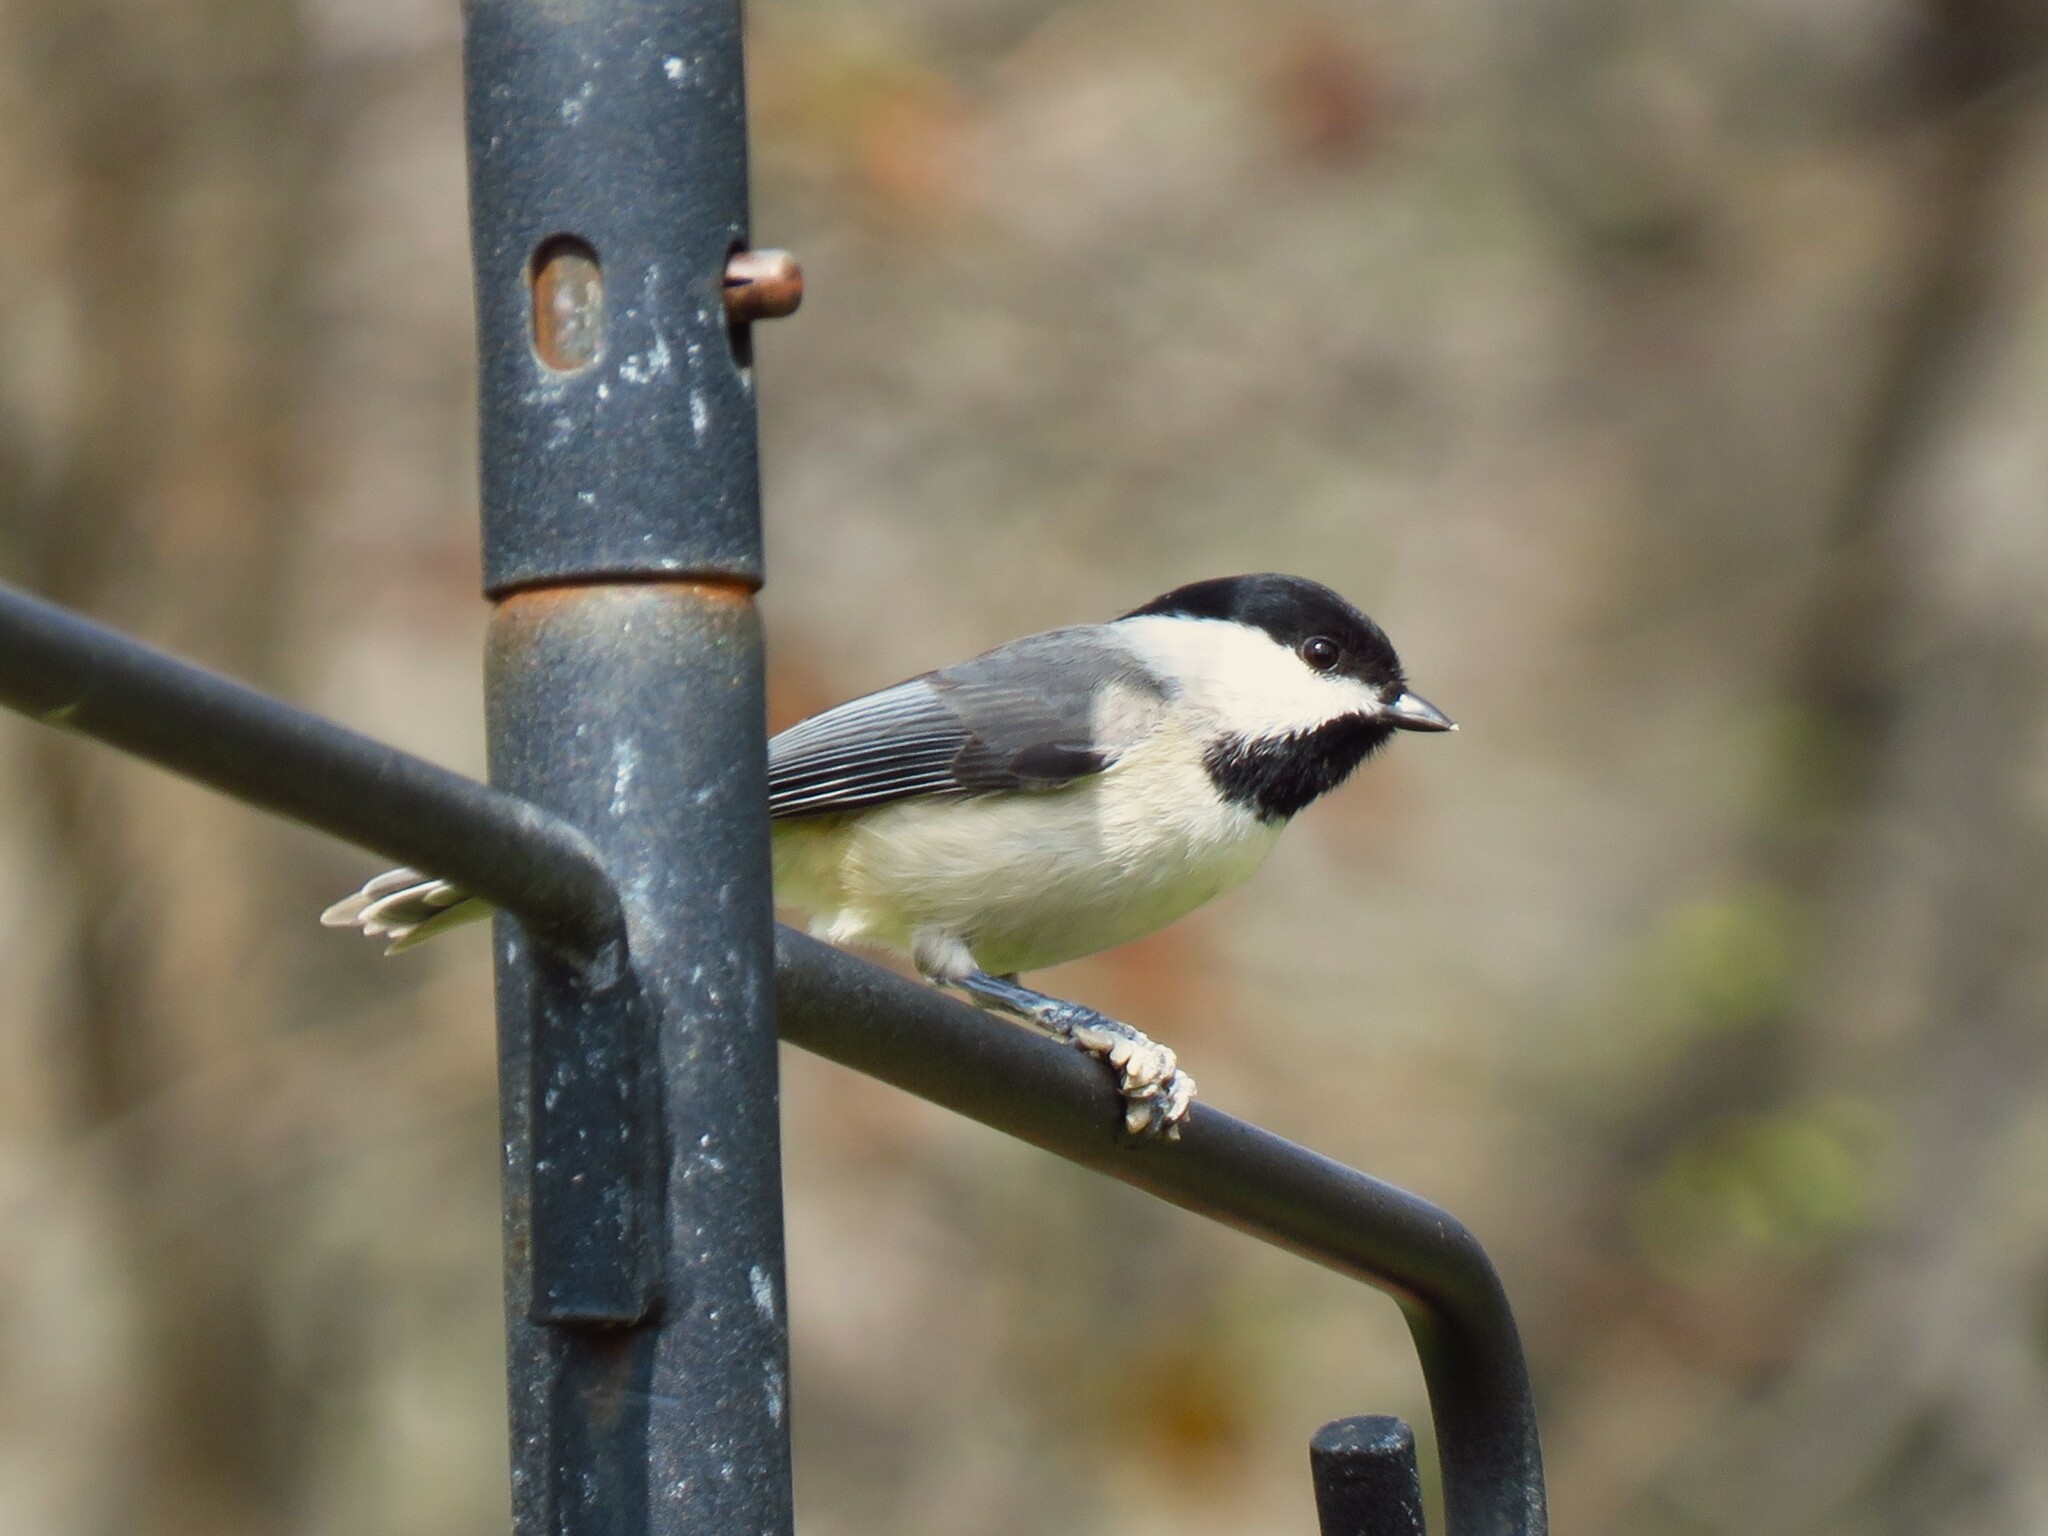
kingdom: Animalia
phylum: Chordata
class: Aves
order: Passeriformes
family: Paridae
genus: Poecile
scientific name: Poecile carolinensis
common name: Carolina chickadee
